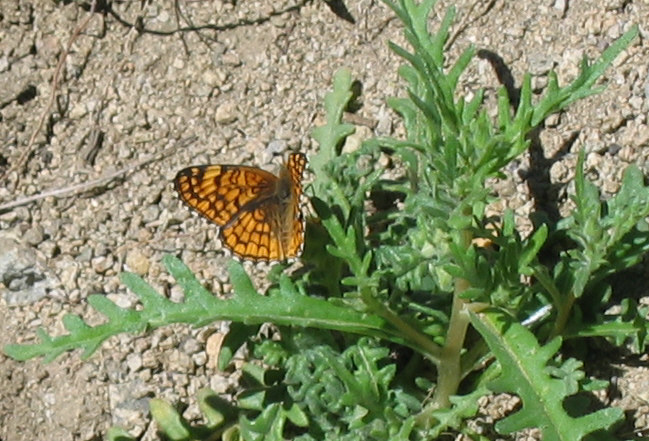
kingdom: Animalia
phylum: Arthropoda
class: Insecta
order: Lepidoptera
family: Nymphalidae
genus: Chlosyne
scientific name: Chlosyne acastus
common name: Sagebrush checkerspot
